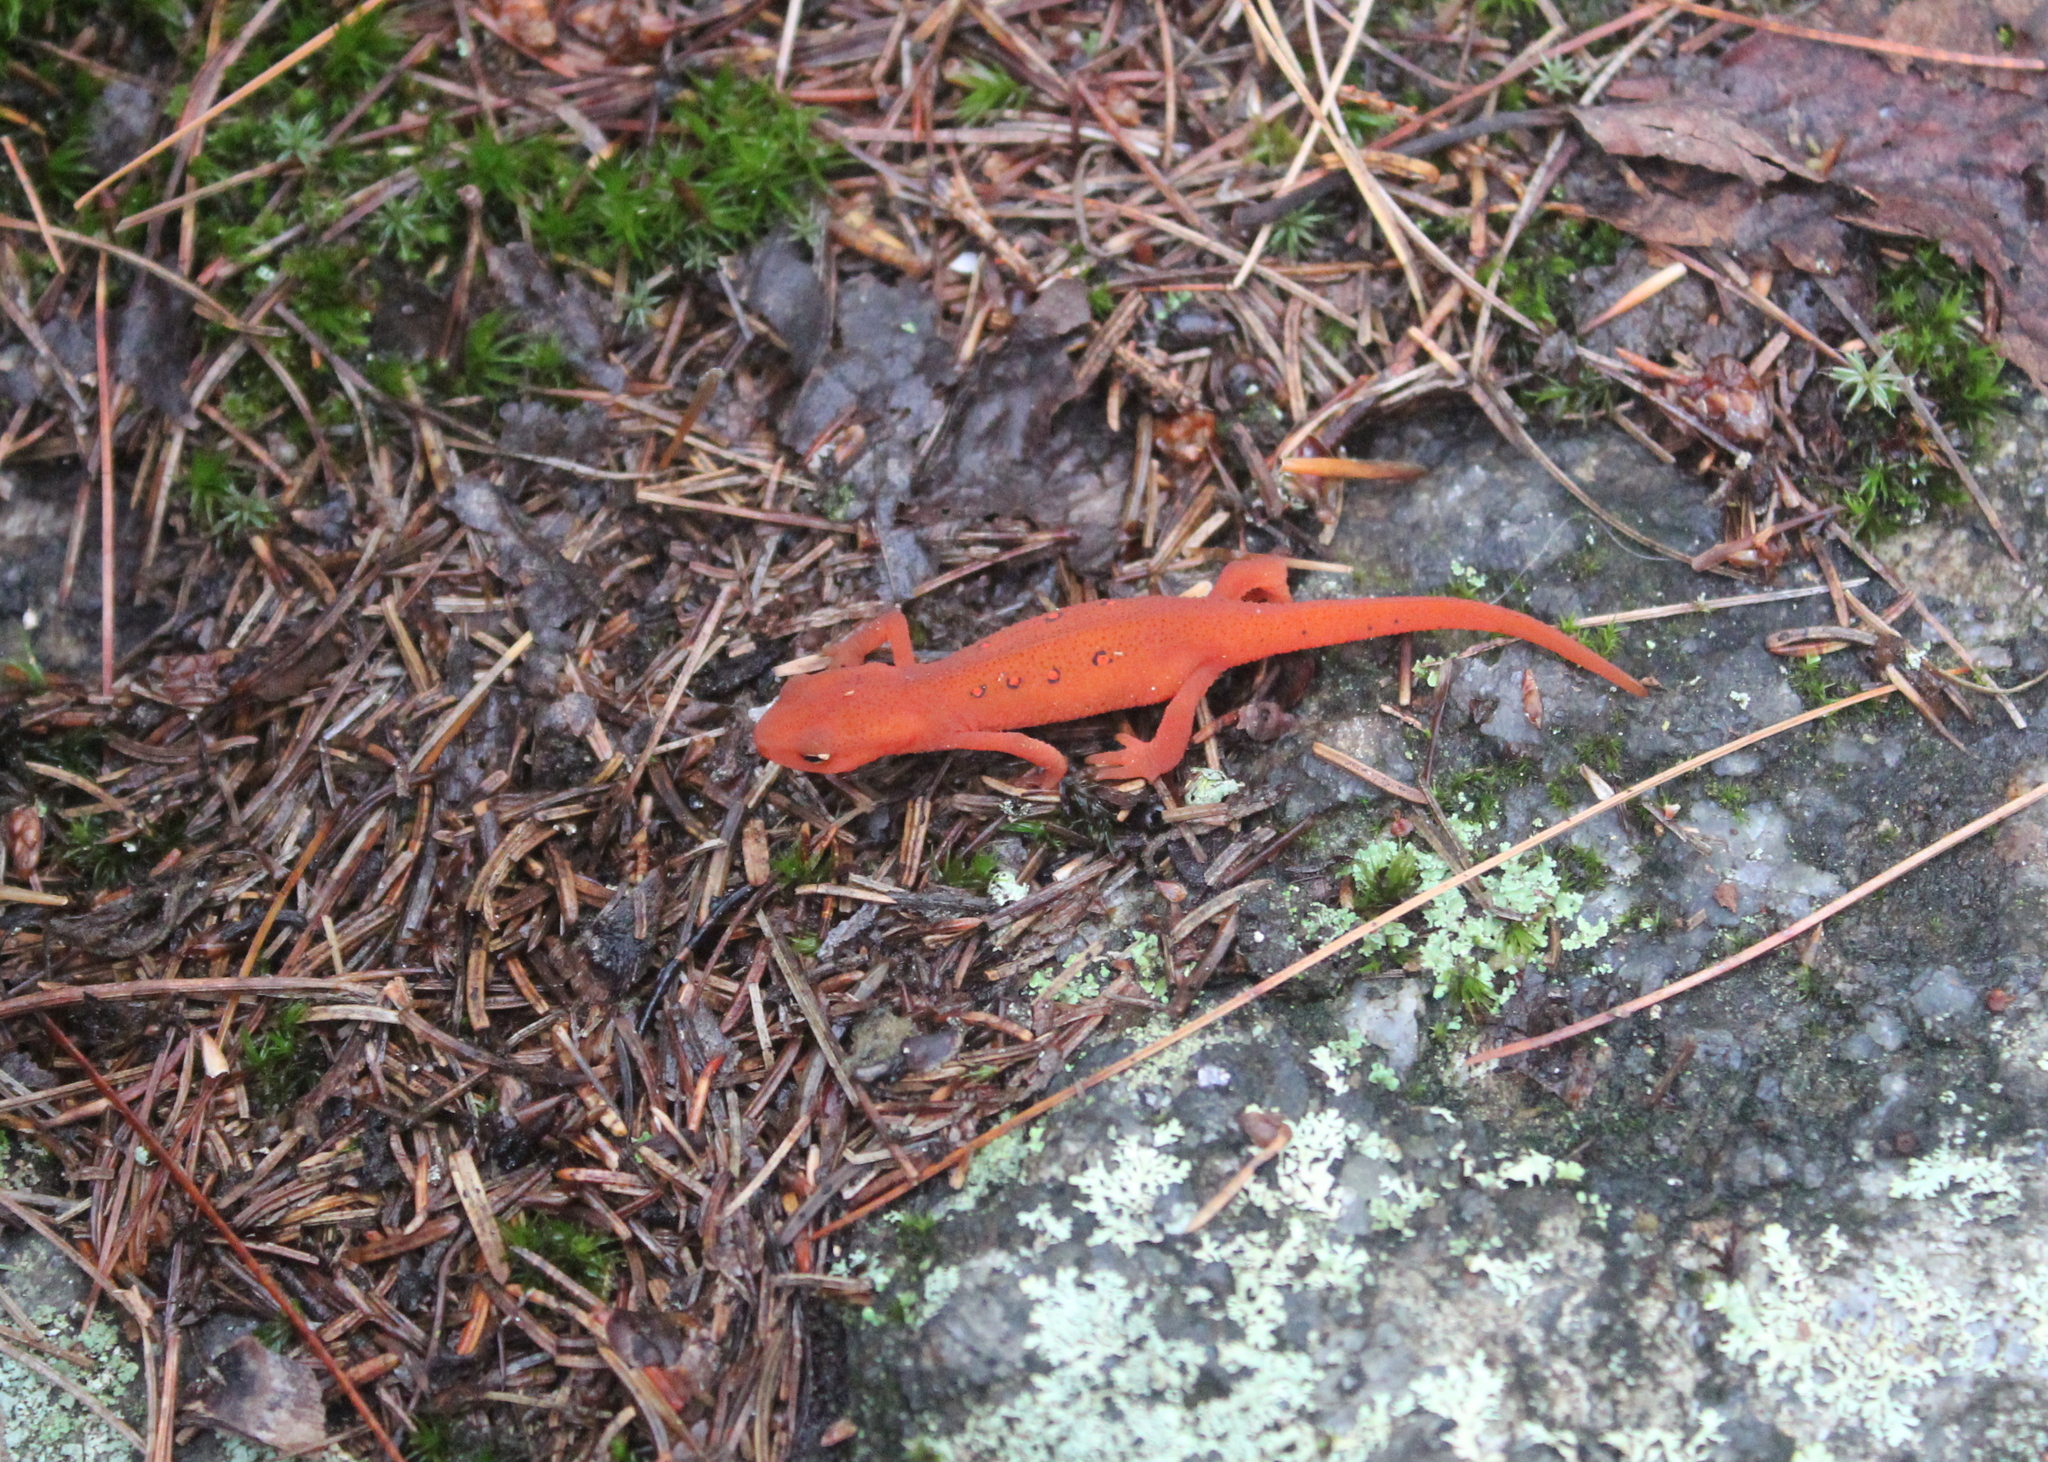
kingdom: Animalia
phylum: Chordata
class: Amphibia
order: Caudata
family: Salamandridae
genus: Notophthalmus
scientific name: Notophthalmus viridescens
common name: Eastern newt
